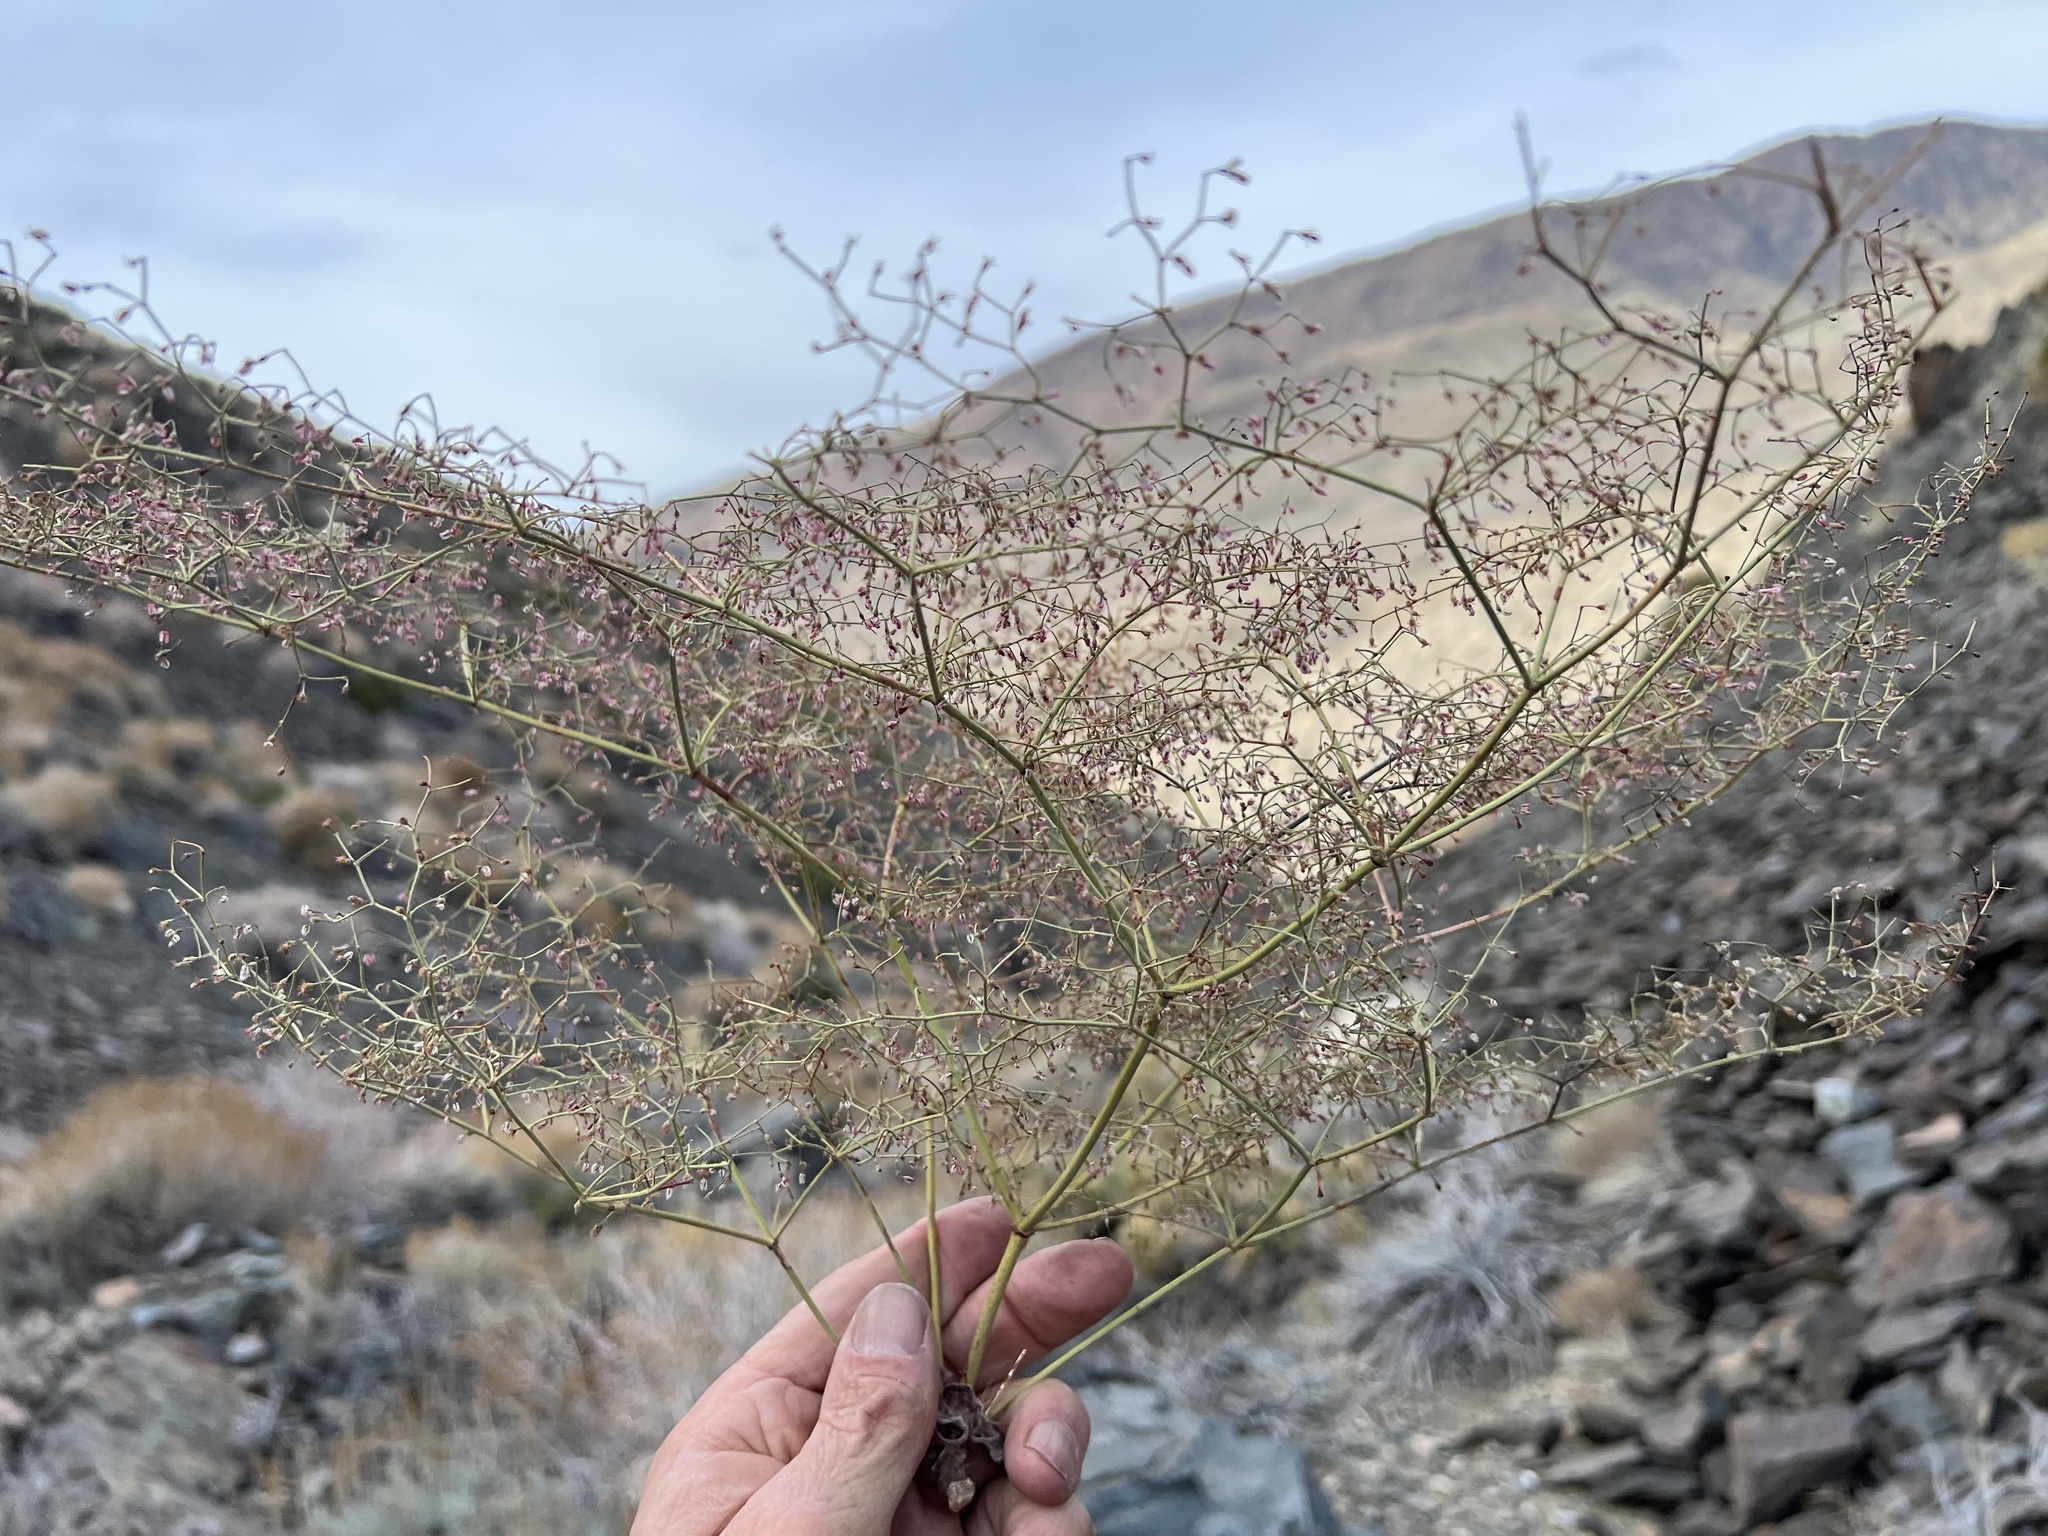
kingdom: Plantae
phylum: Tracheophyta
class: Magnoliopsida
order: Caryophyllales
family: Polygonaceae
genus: Eriogonum
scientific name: Eriogonum brachypodum
